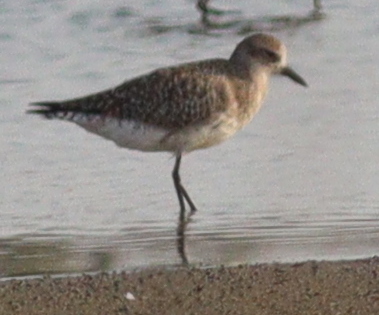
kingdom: Animalia
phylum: Chordata
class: Aves
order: Charadriiformes
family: Charadriidae
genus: Pluvialis
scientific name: Pluvialis squatarola
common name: Grey plover
